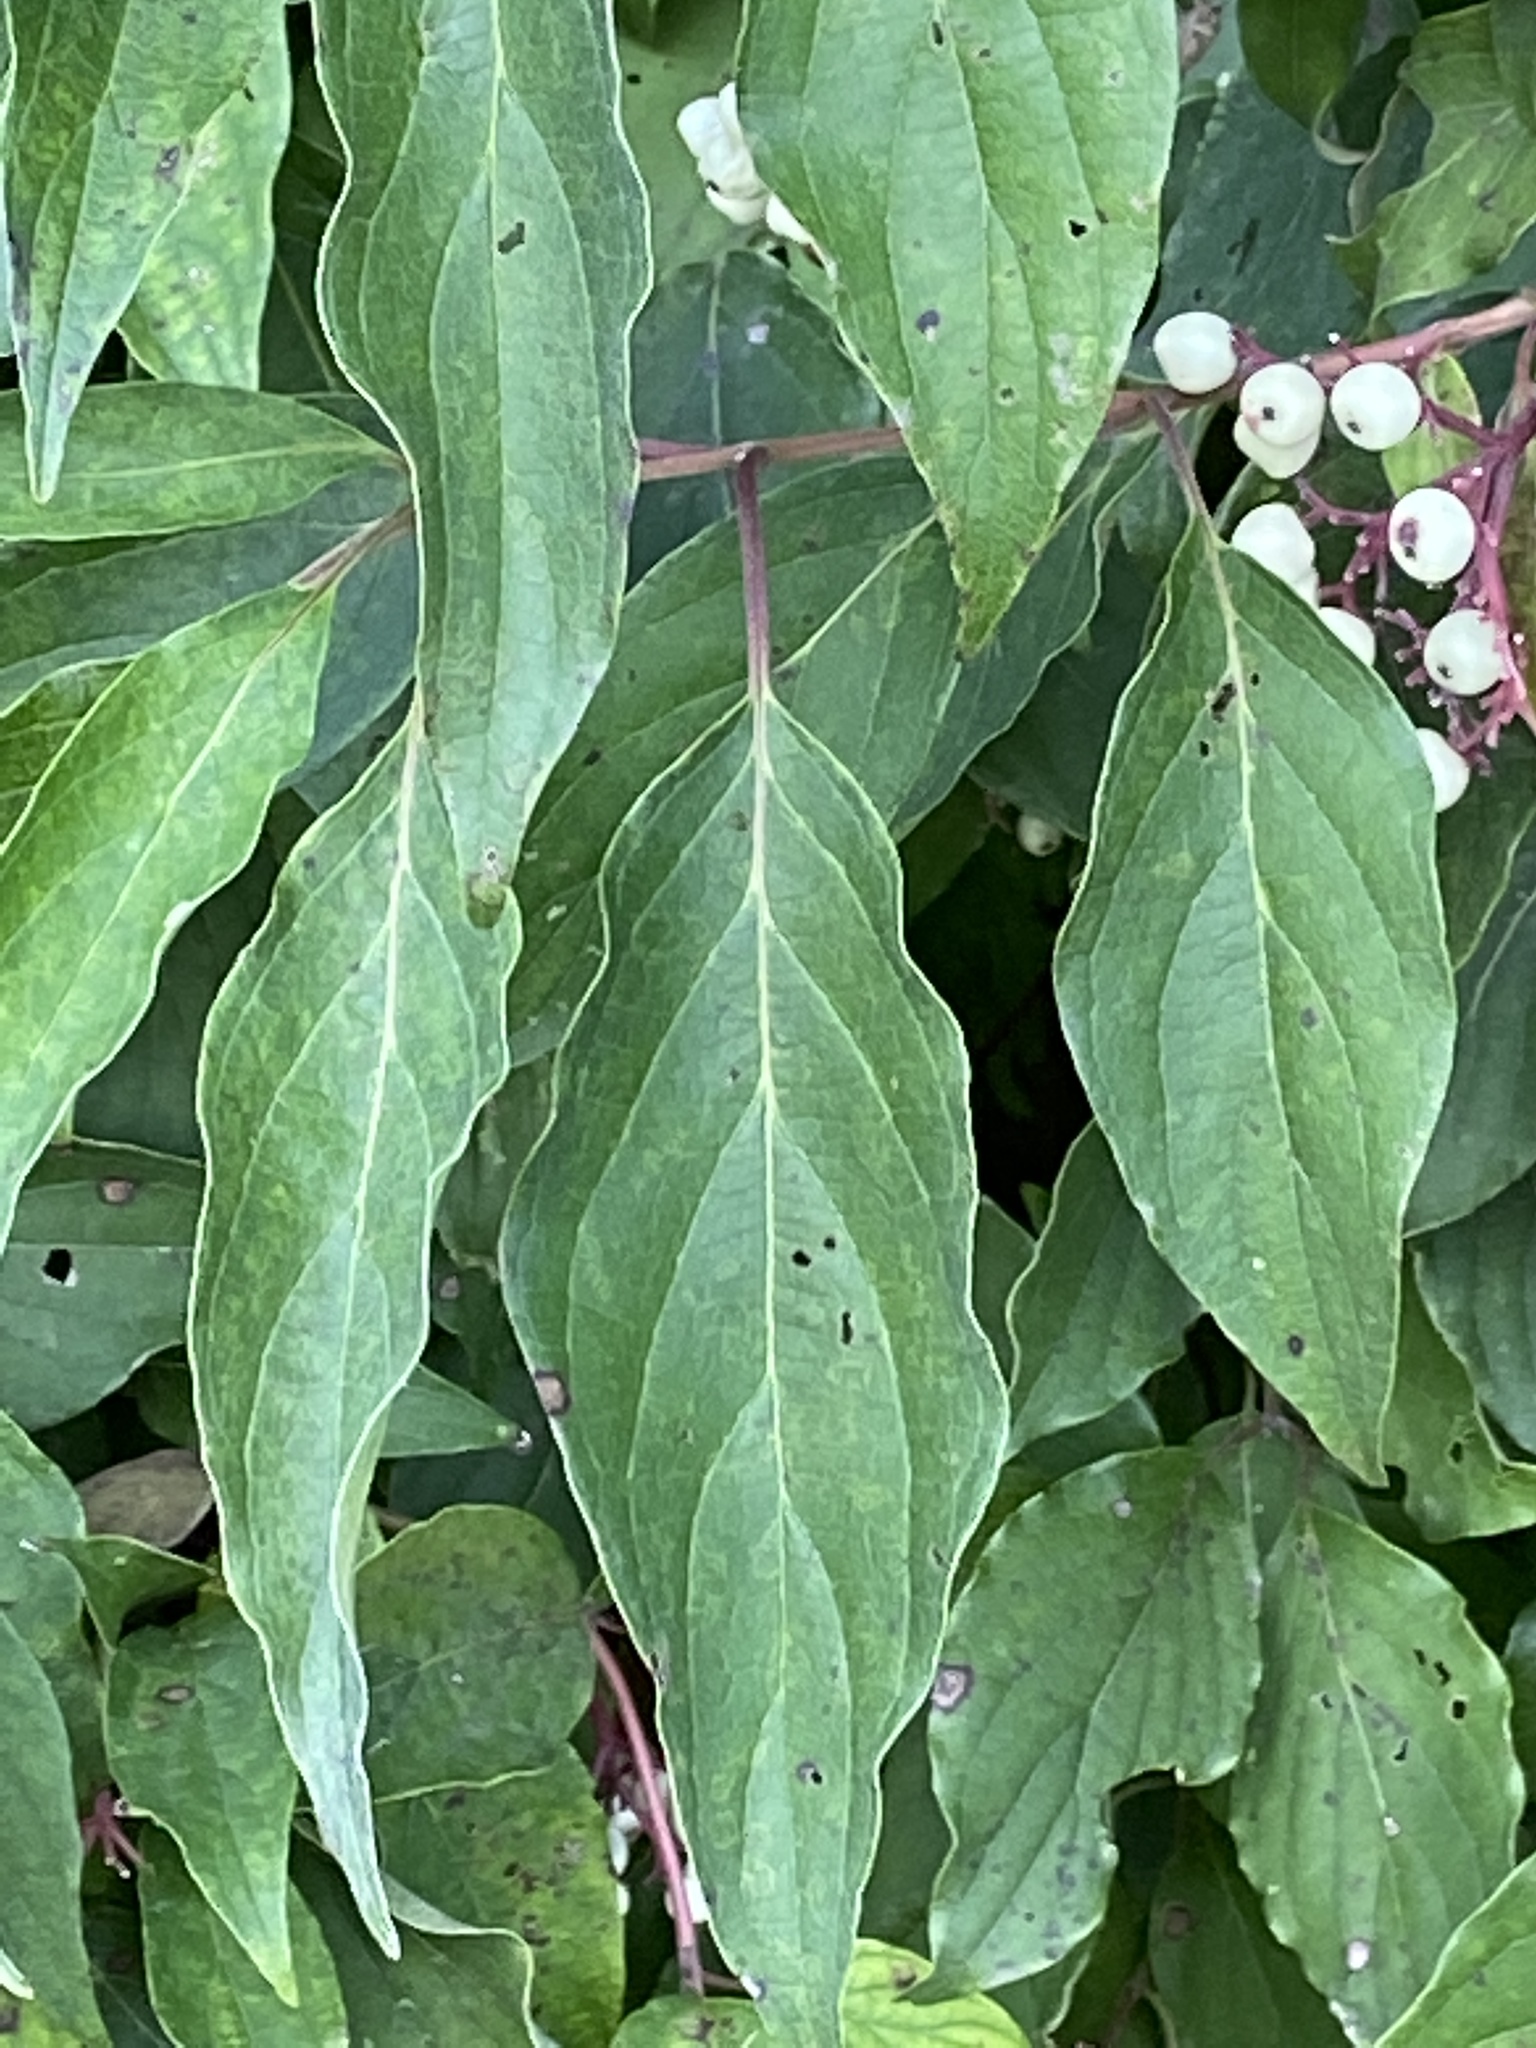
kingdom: Plantae
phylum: Tracheophyta
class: Magnoliopsida
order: Cornales
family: Cornaceae
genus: Cornus
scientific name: Cornus drummondii
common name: Rough-leaf dogwood
